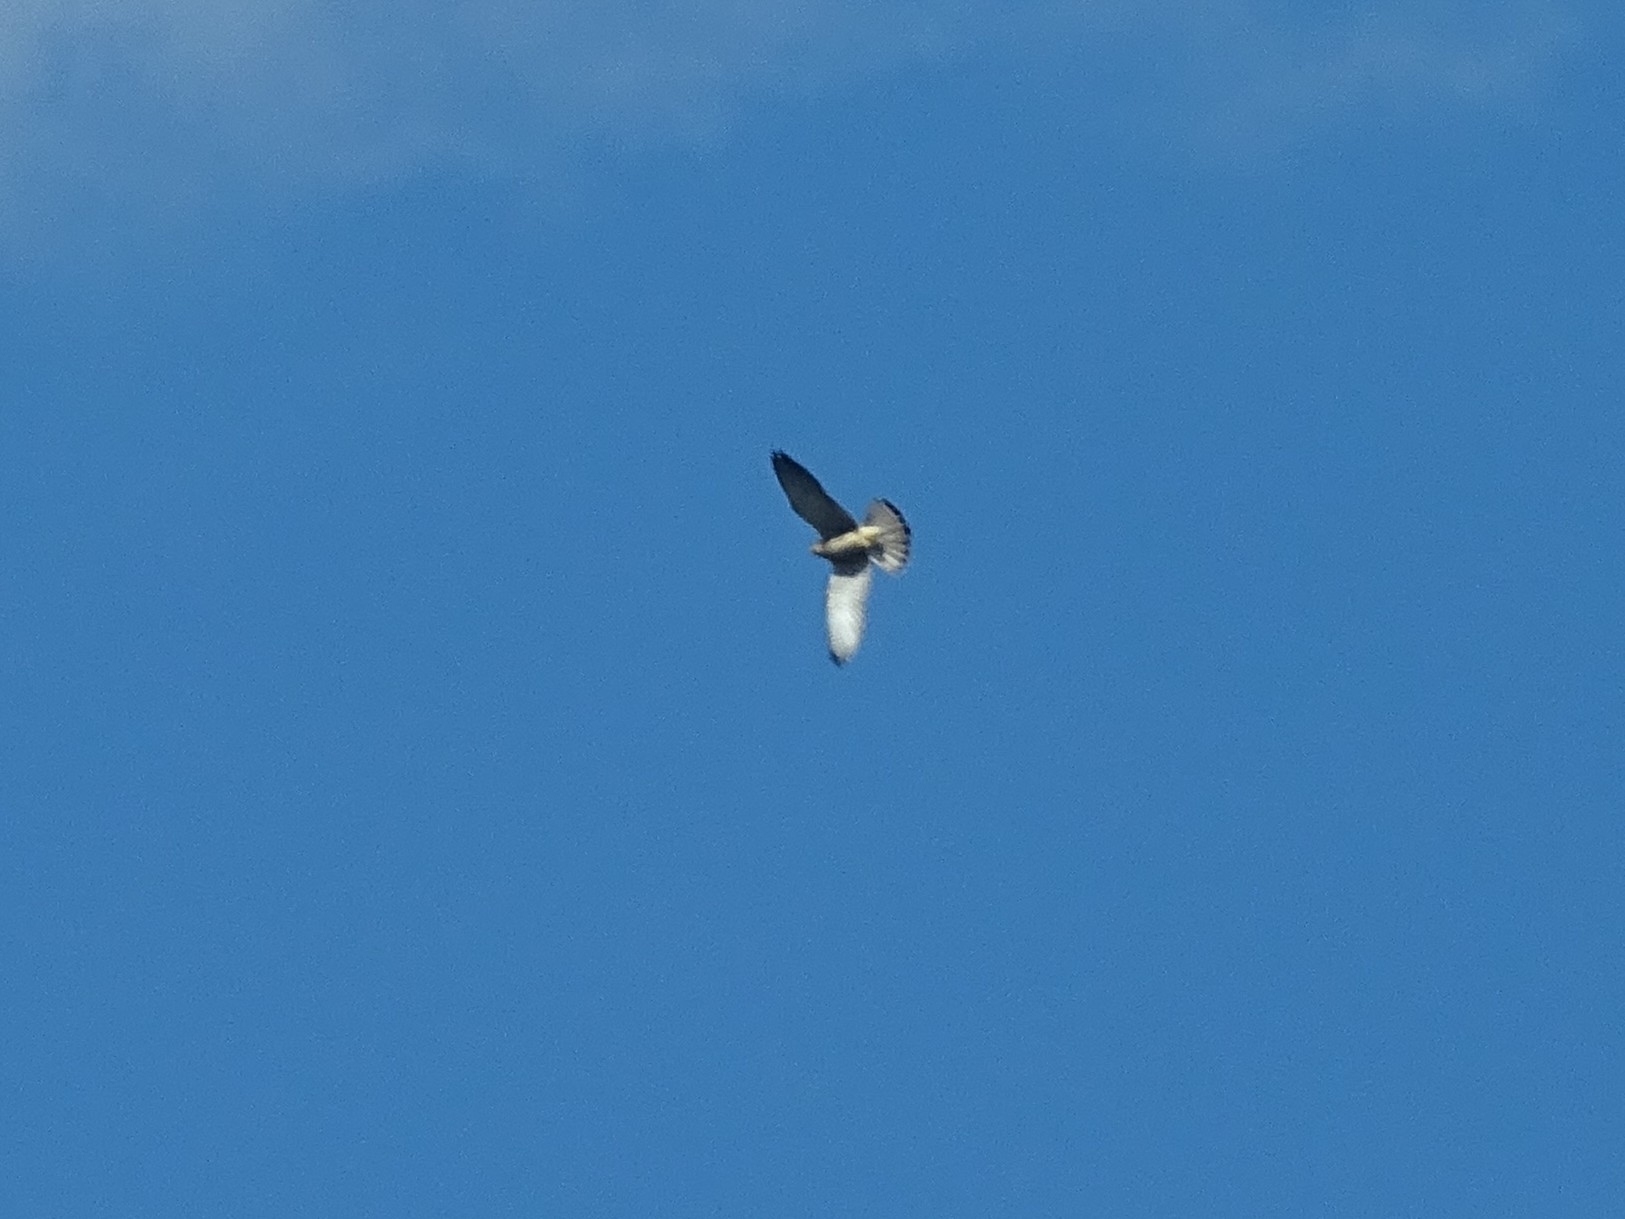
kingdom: Animalia
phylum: Chordata
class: Aves
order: Falconiformes
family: Falconidae
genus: Falco
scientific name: Falco tinnunculus
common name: Common kestrel
